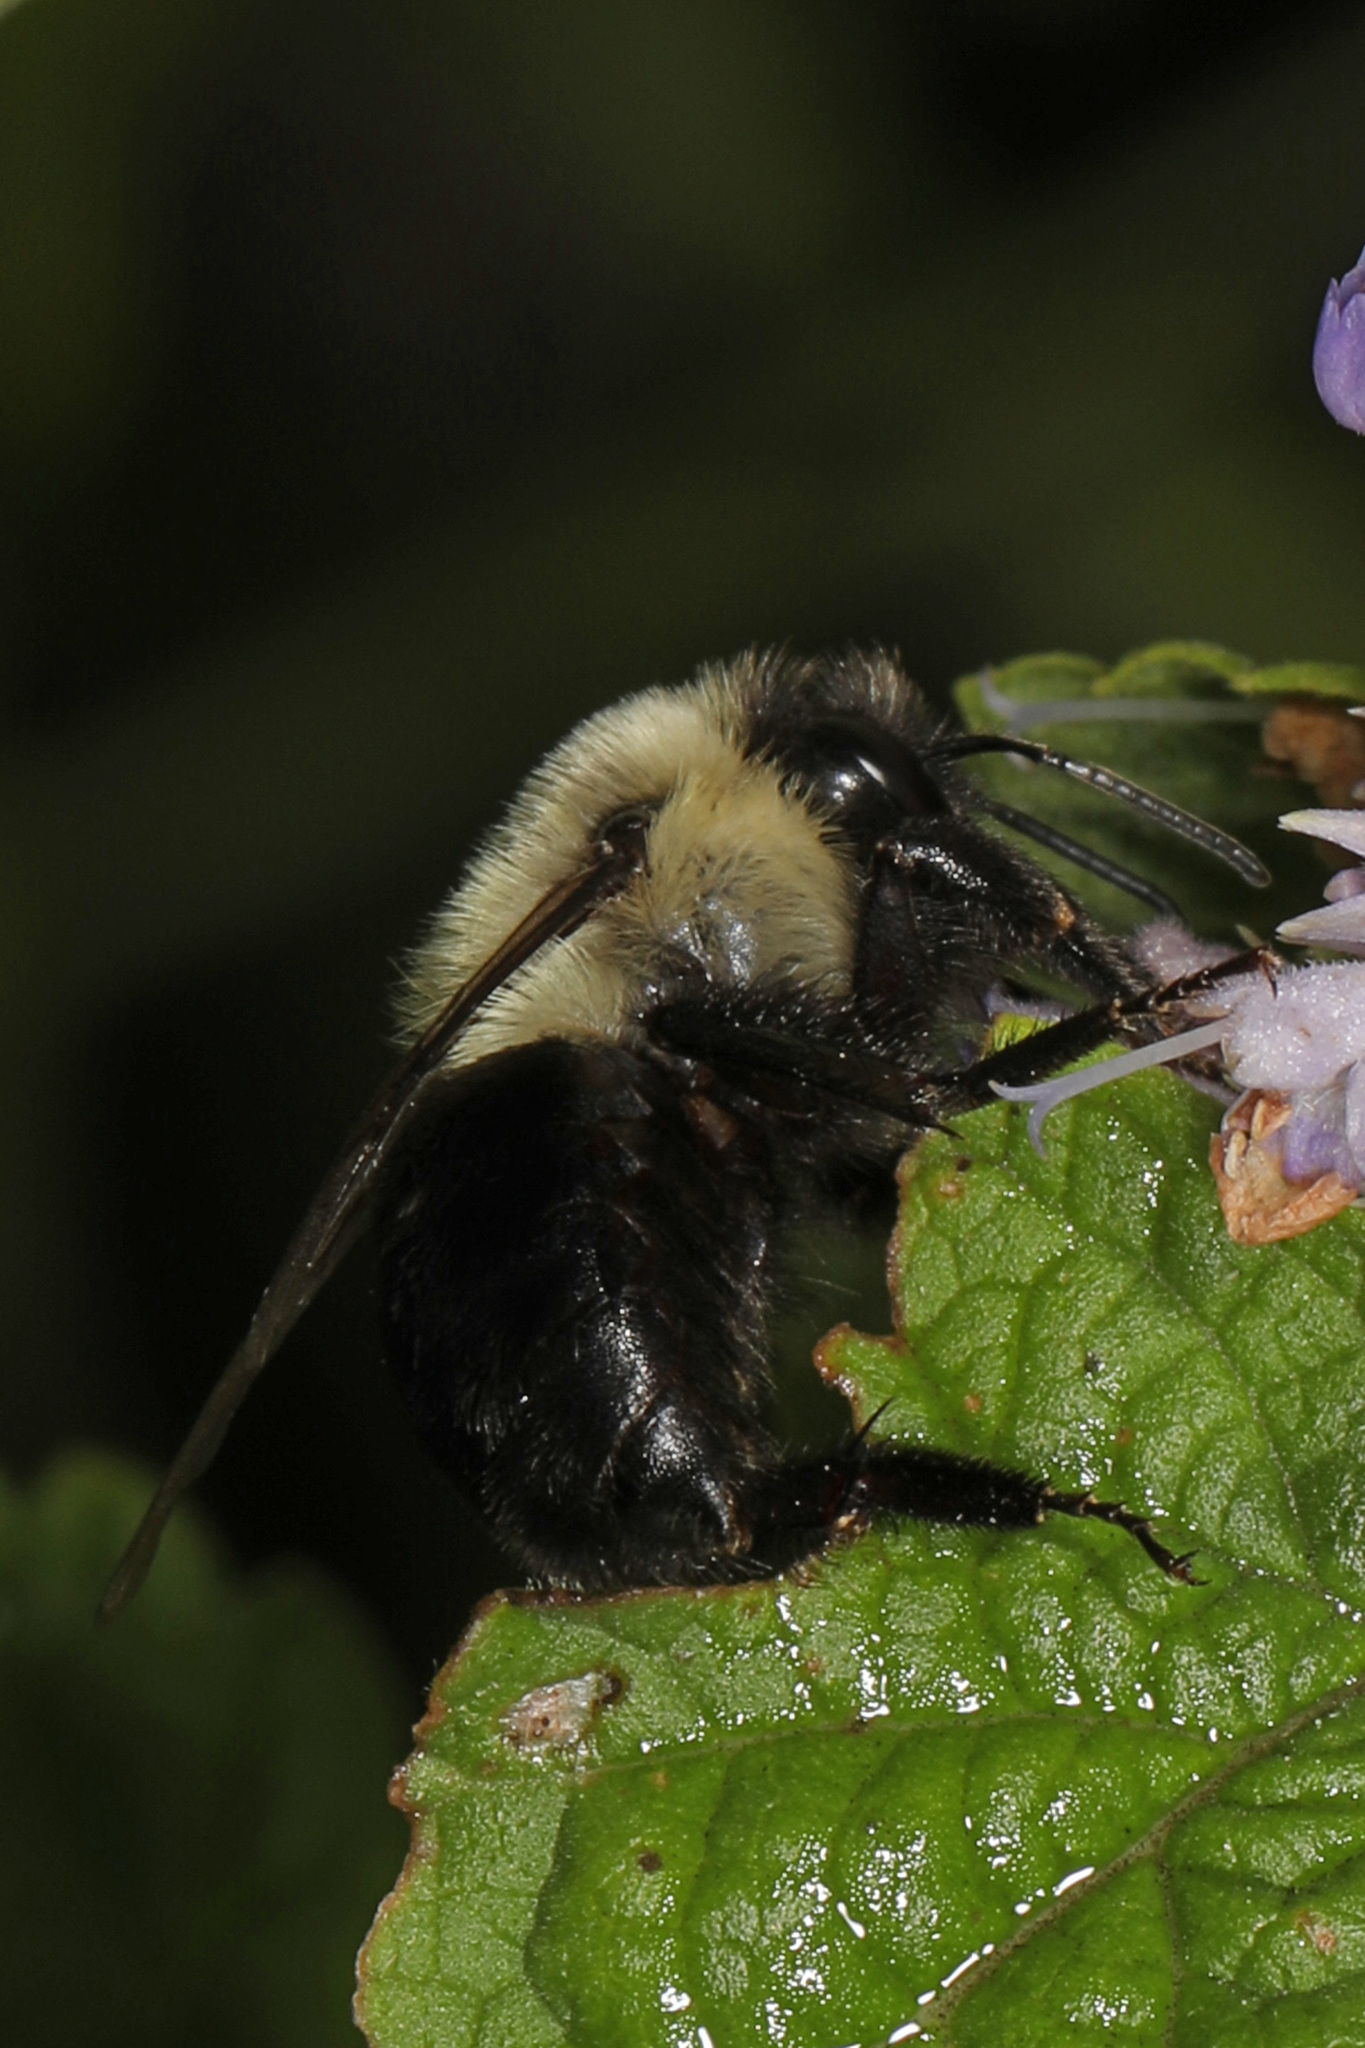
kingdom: Animalia
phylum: Arthropoda
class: Insecta
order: Hymenoptera
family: Apidae
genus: Bombus
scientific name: Bombus impatiens
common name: Common eastern bumble bee
